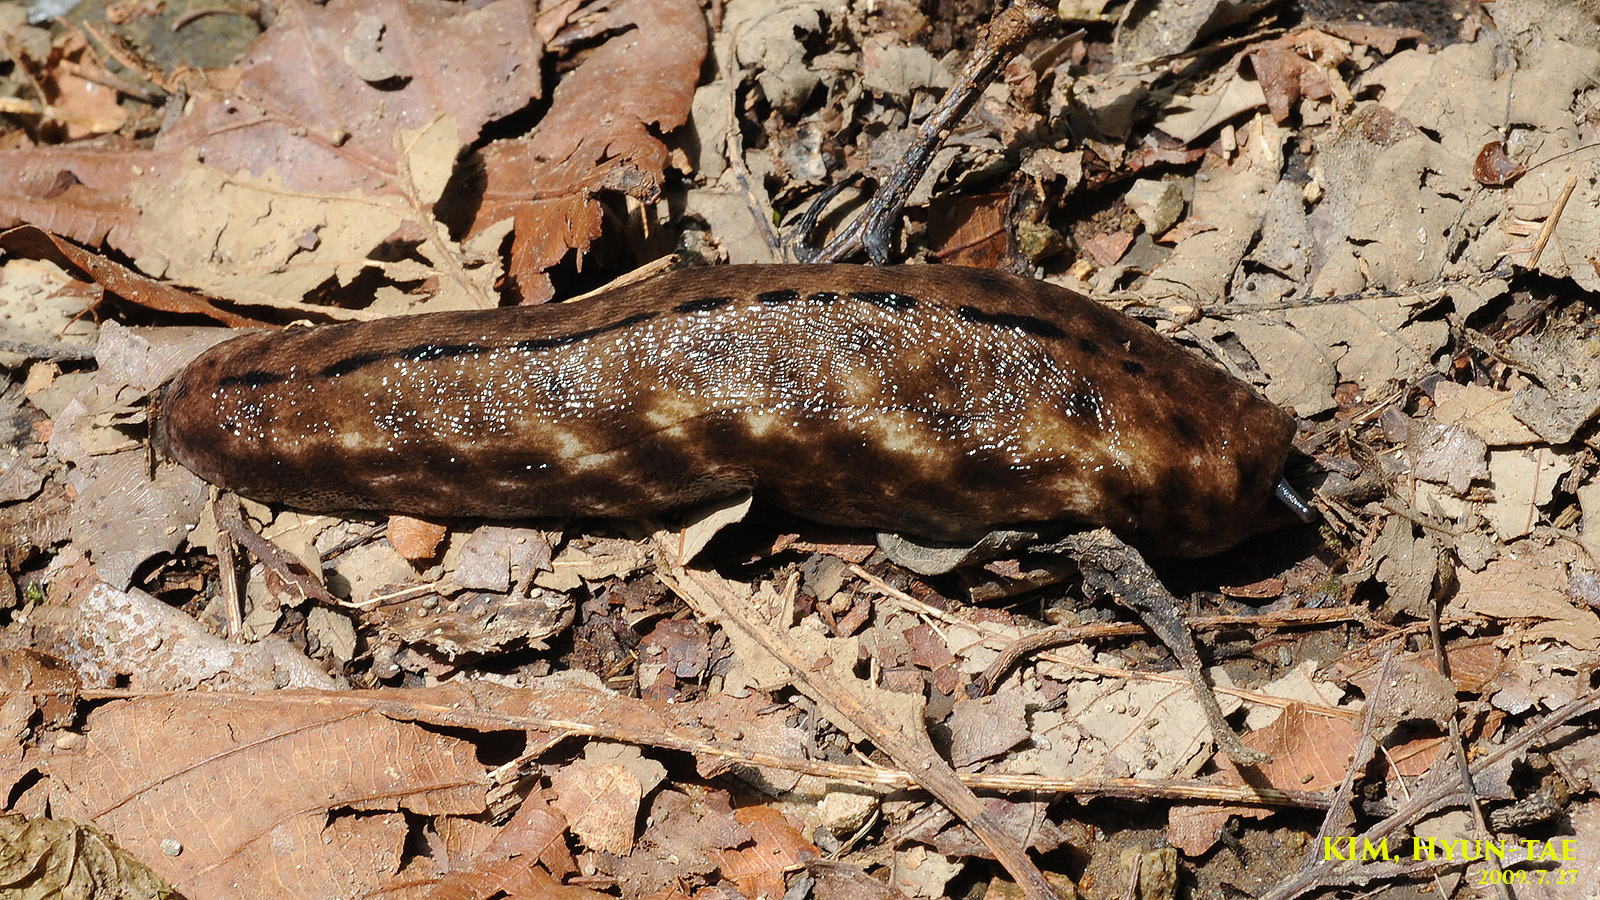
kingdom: Animalia
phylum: Mollusca
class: Gastropoda
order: Stylommatophora
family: Philomycidae
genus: Meghimatium
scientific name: Meghimatium fruhstorferi
